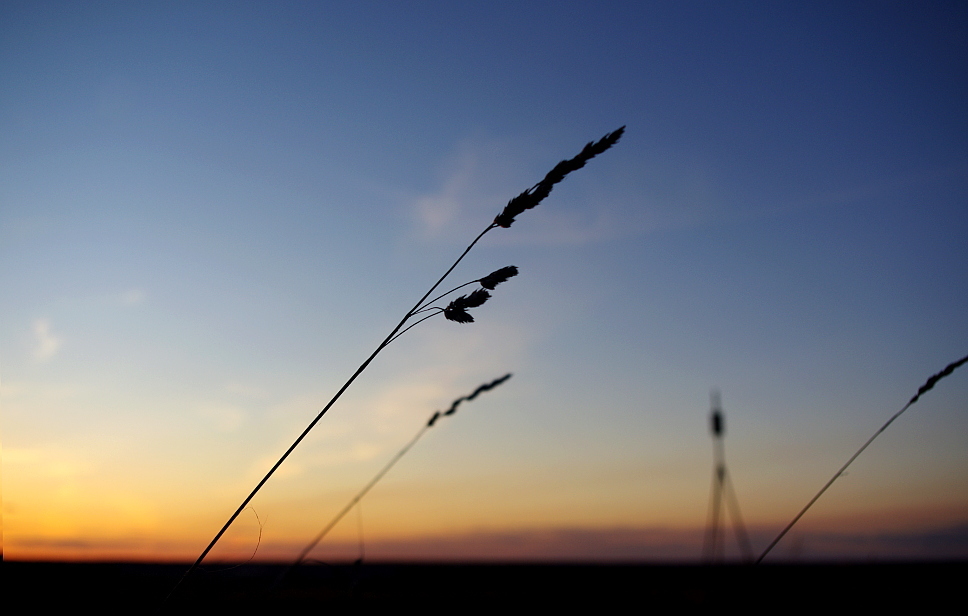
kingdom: Plantae
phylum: Tracheophyta
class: Liliopsida
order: Poales
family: Poaceae
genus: Dactylis
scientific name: Dactylis glomerata
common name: Orchardgrass
